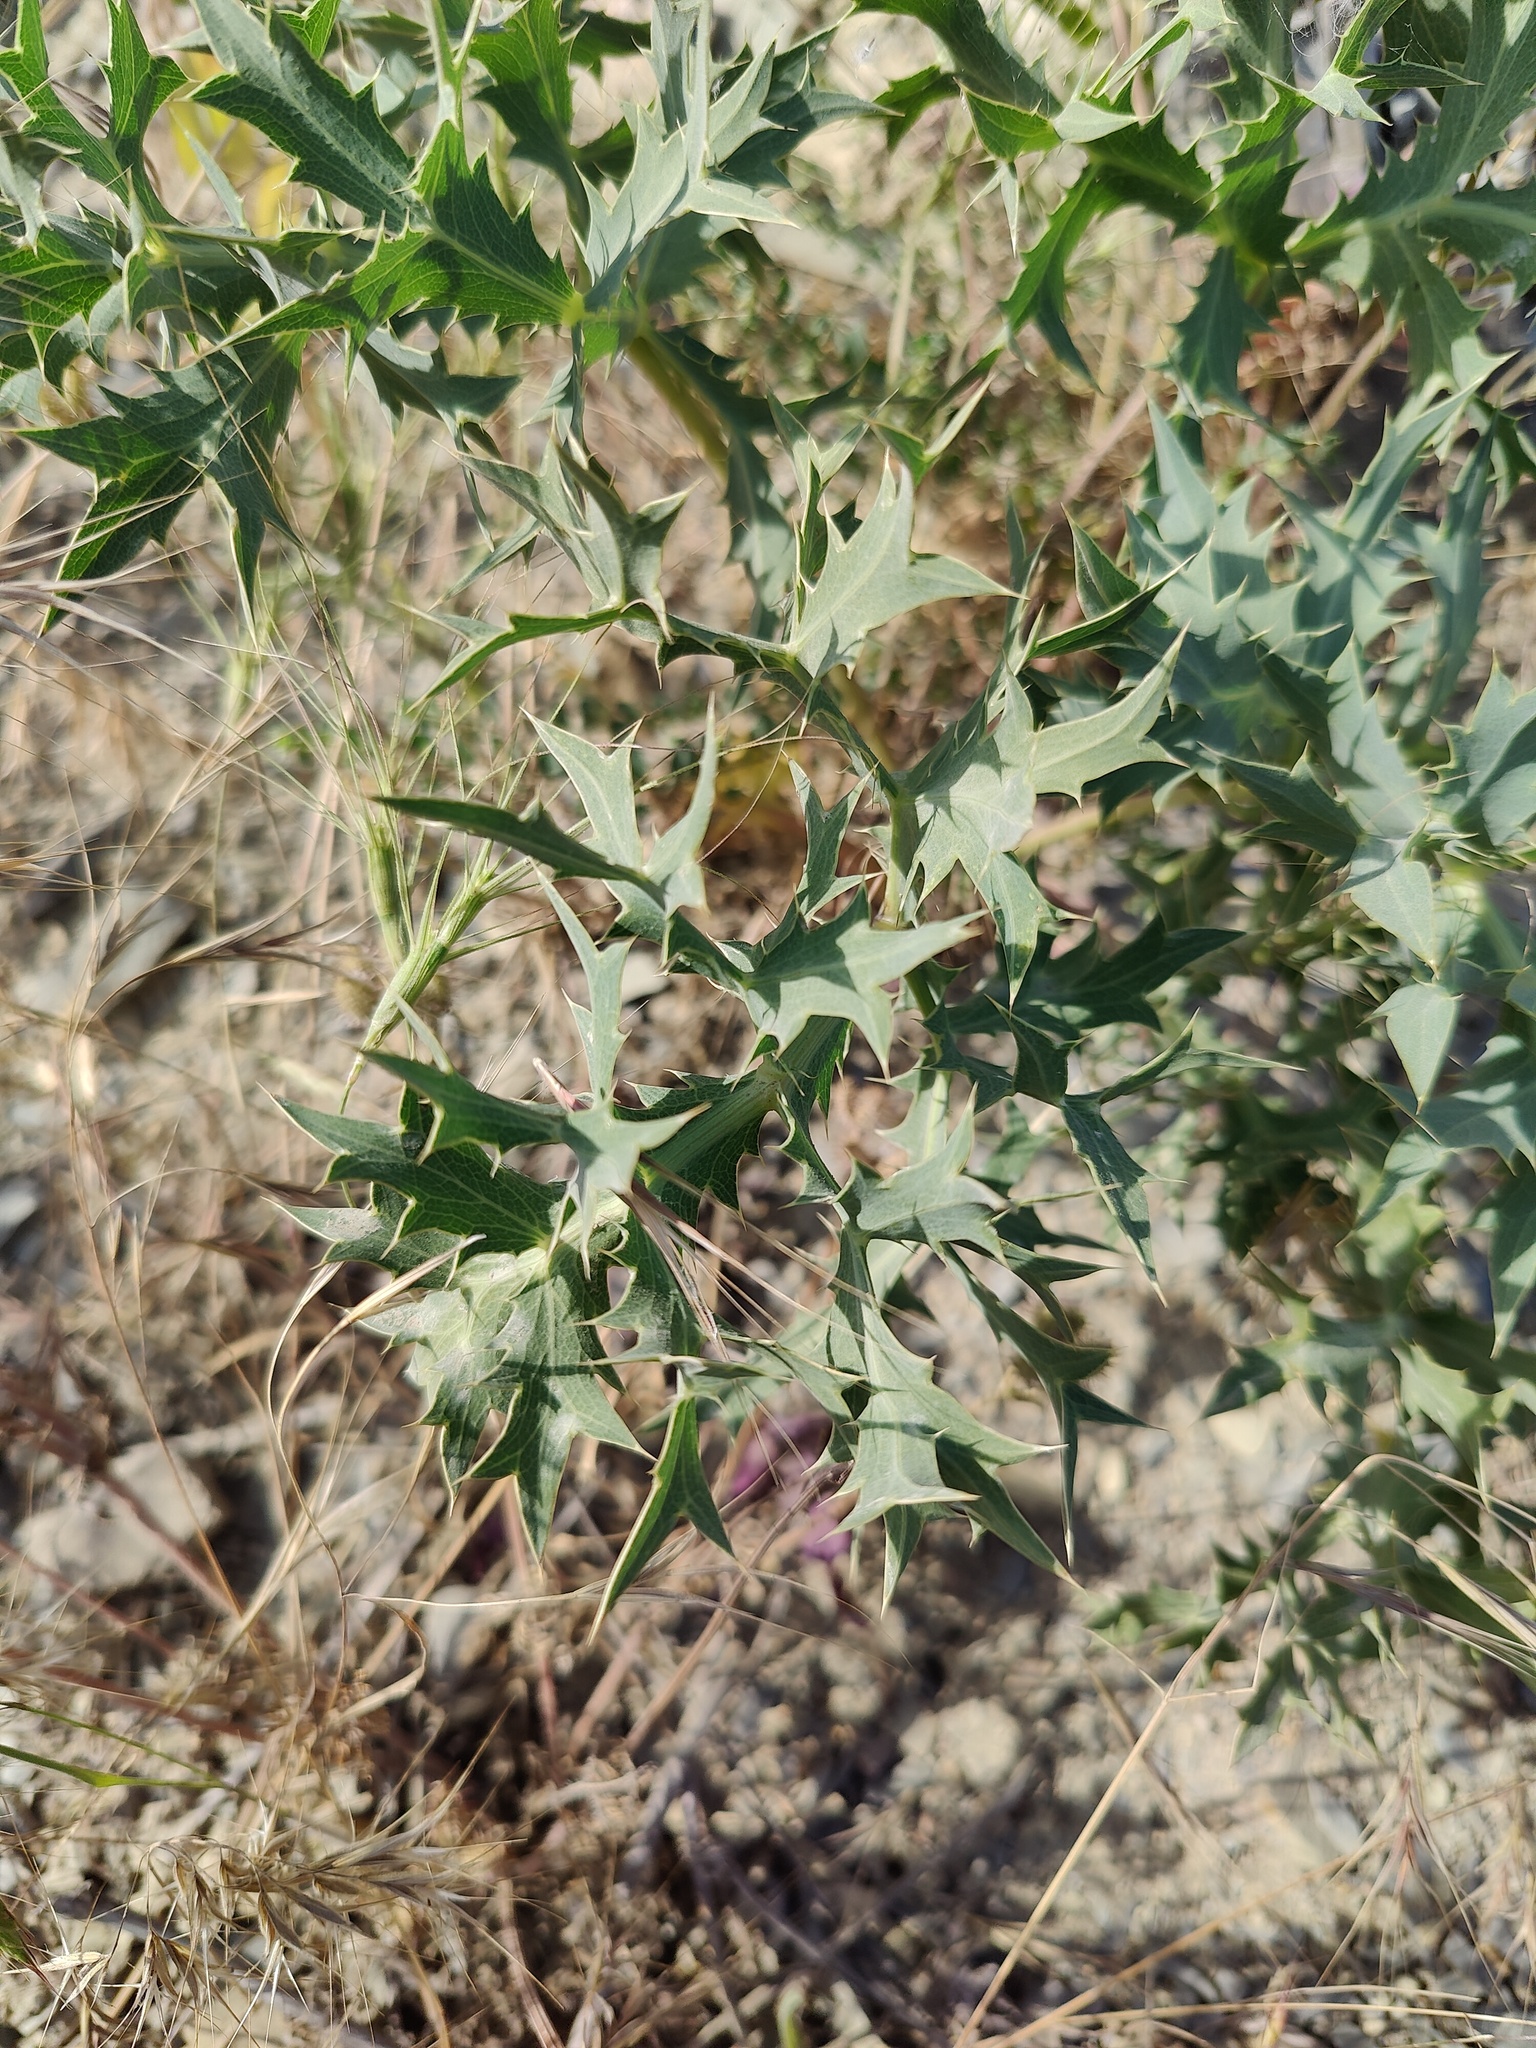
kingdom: Plantae
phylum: Tracheophyta
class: Magnoliopsida
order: Apiales
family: Apiaceae
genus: Eryngium
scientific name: Eryngium campestre
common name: Field eryngo
